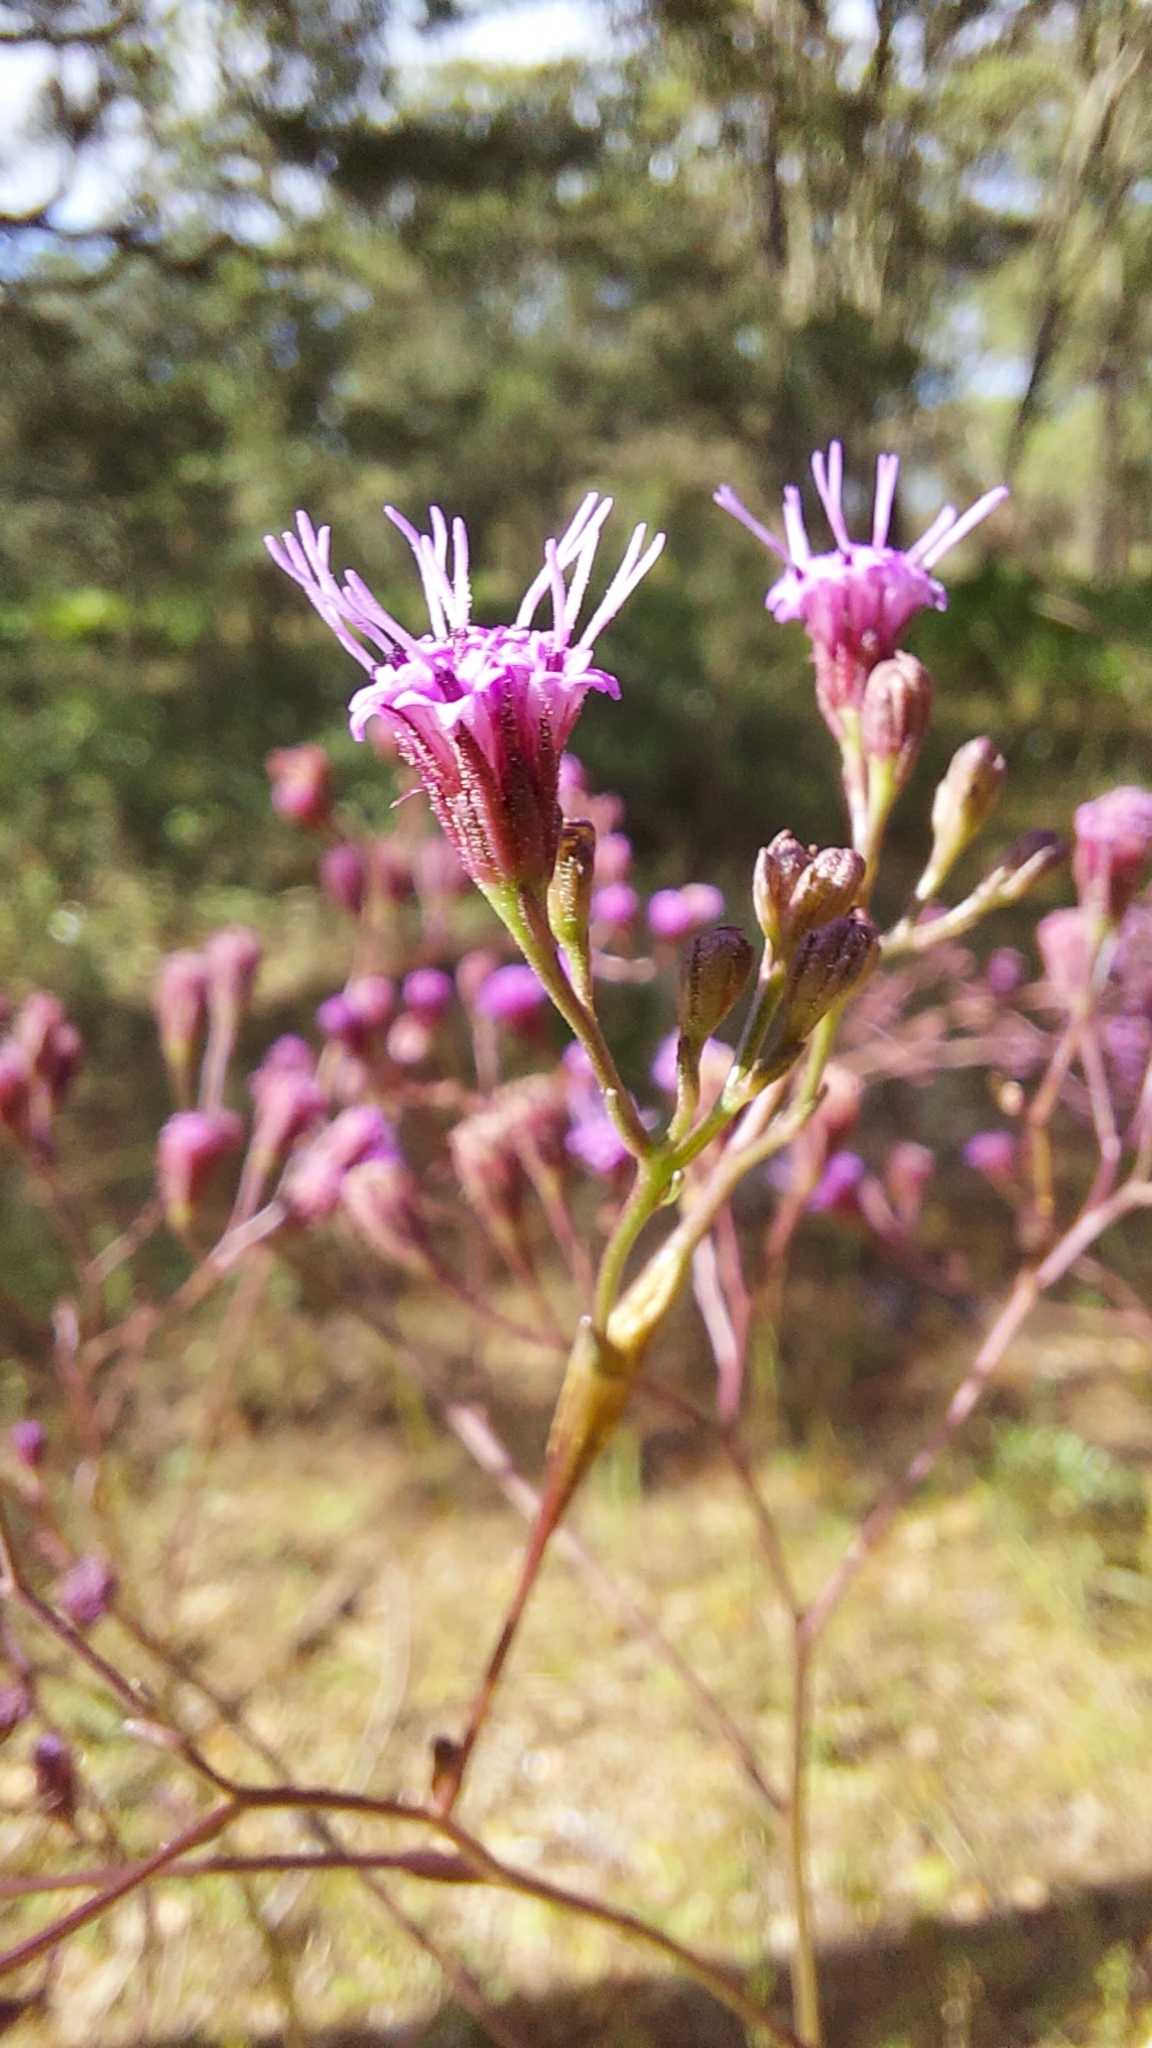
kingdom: Plantae
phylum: Tracheophyta
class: Magnoliopsida
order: Asterales
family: Asteraceae
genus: Carphephorus
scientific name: Carphephorus odoratissimus
